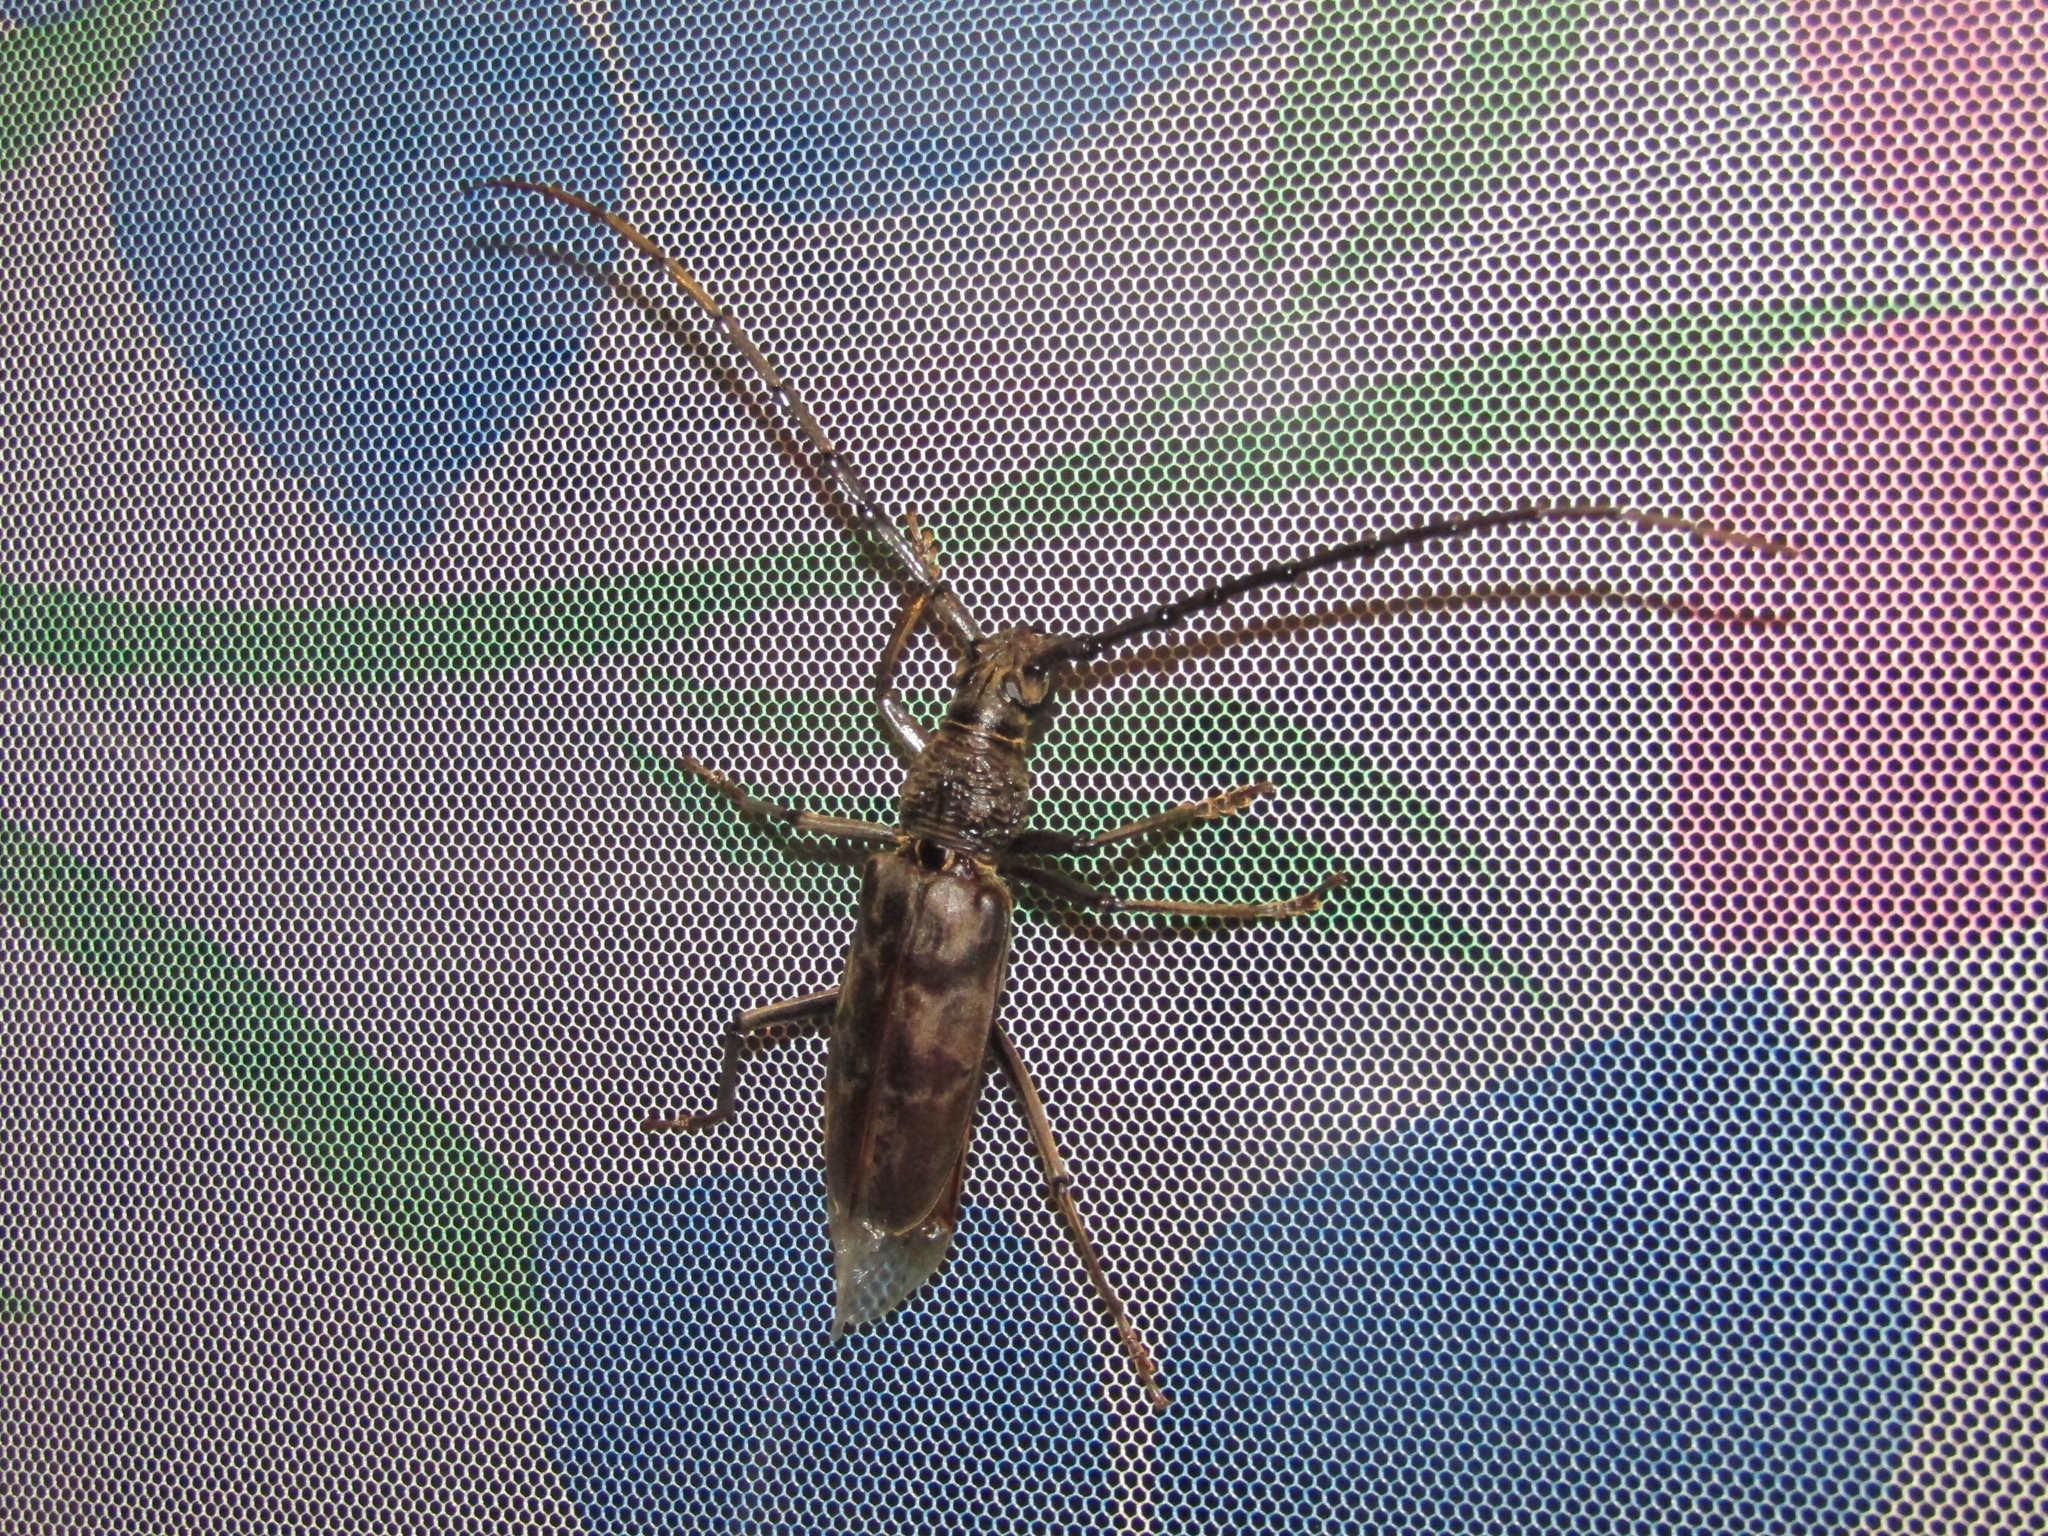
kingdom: Animalia
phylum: Arthropoda
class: Insecta
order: Coleoptera
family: Cerambycidae
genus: Hoplocerambyx
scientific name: Hoplocerambyx spinicornis
